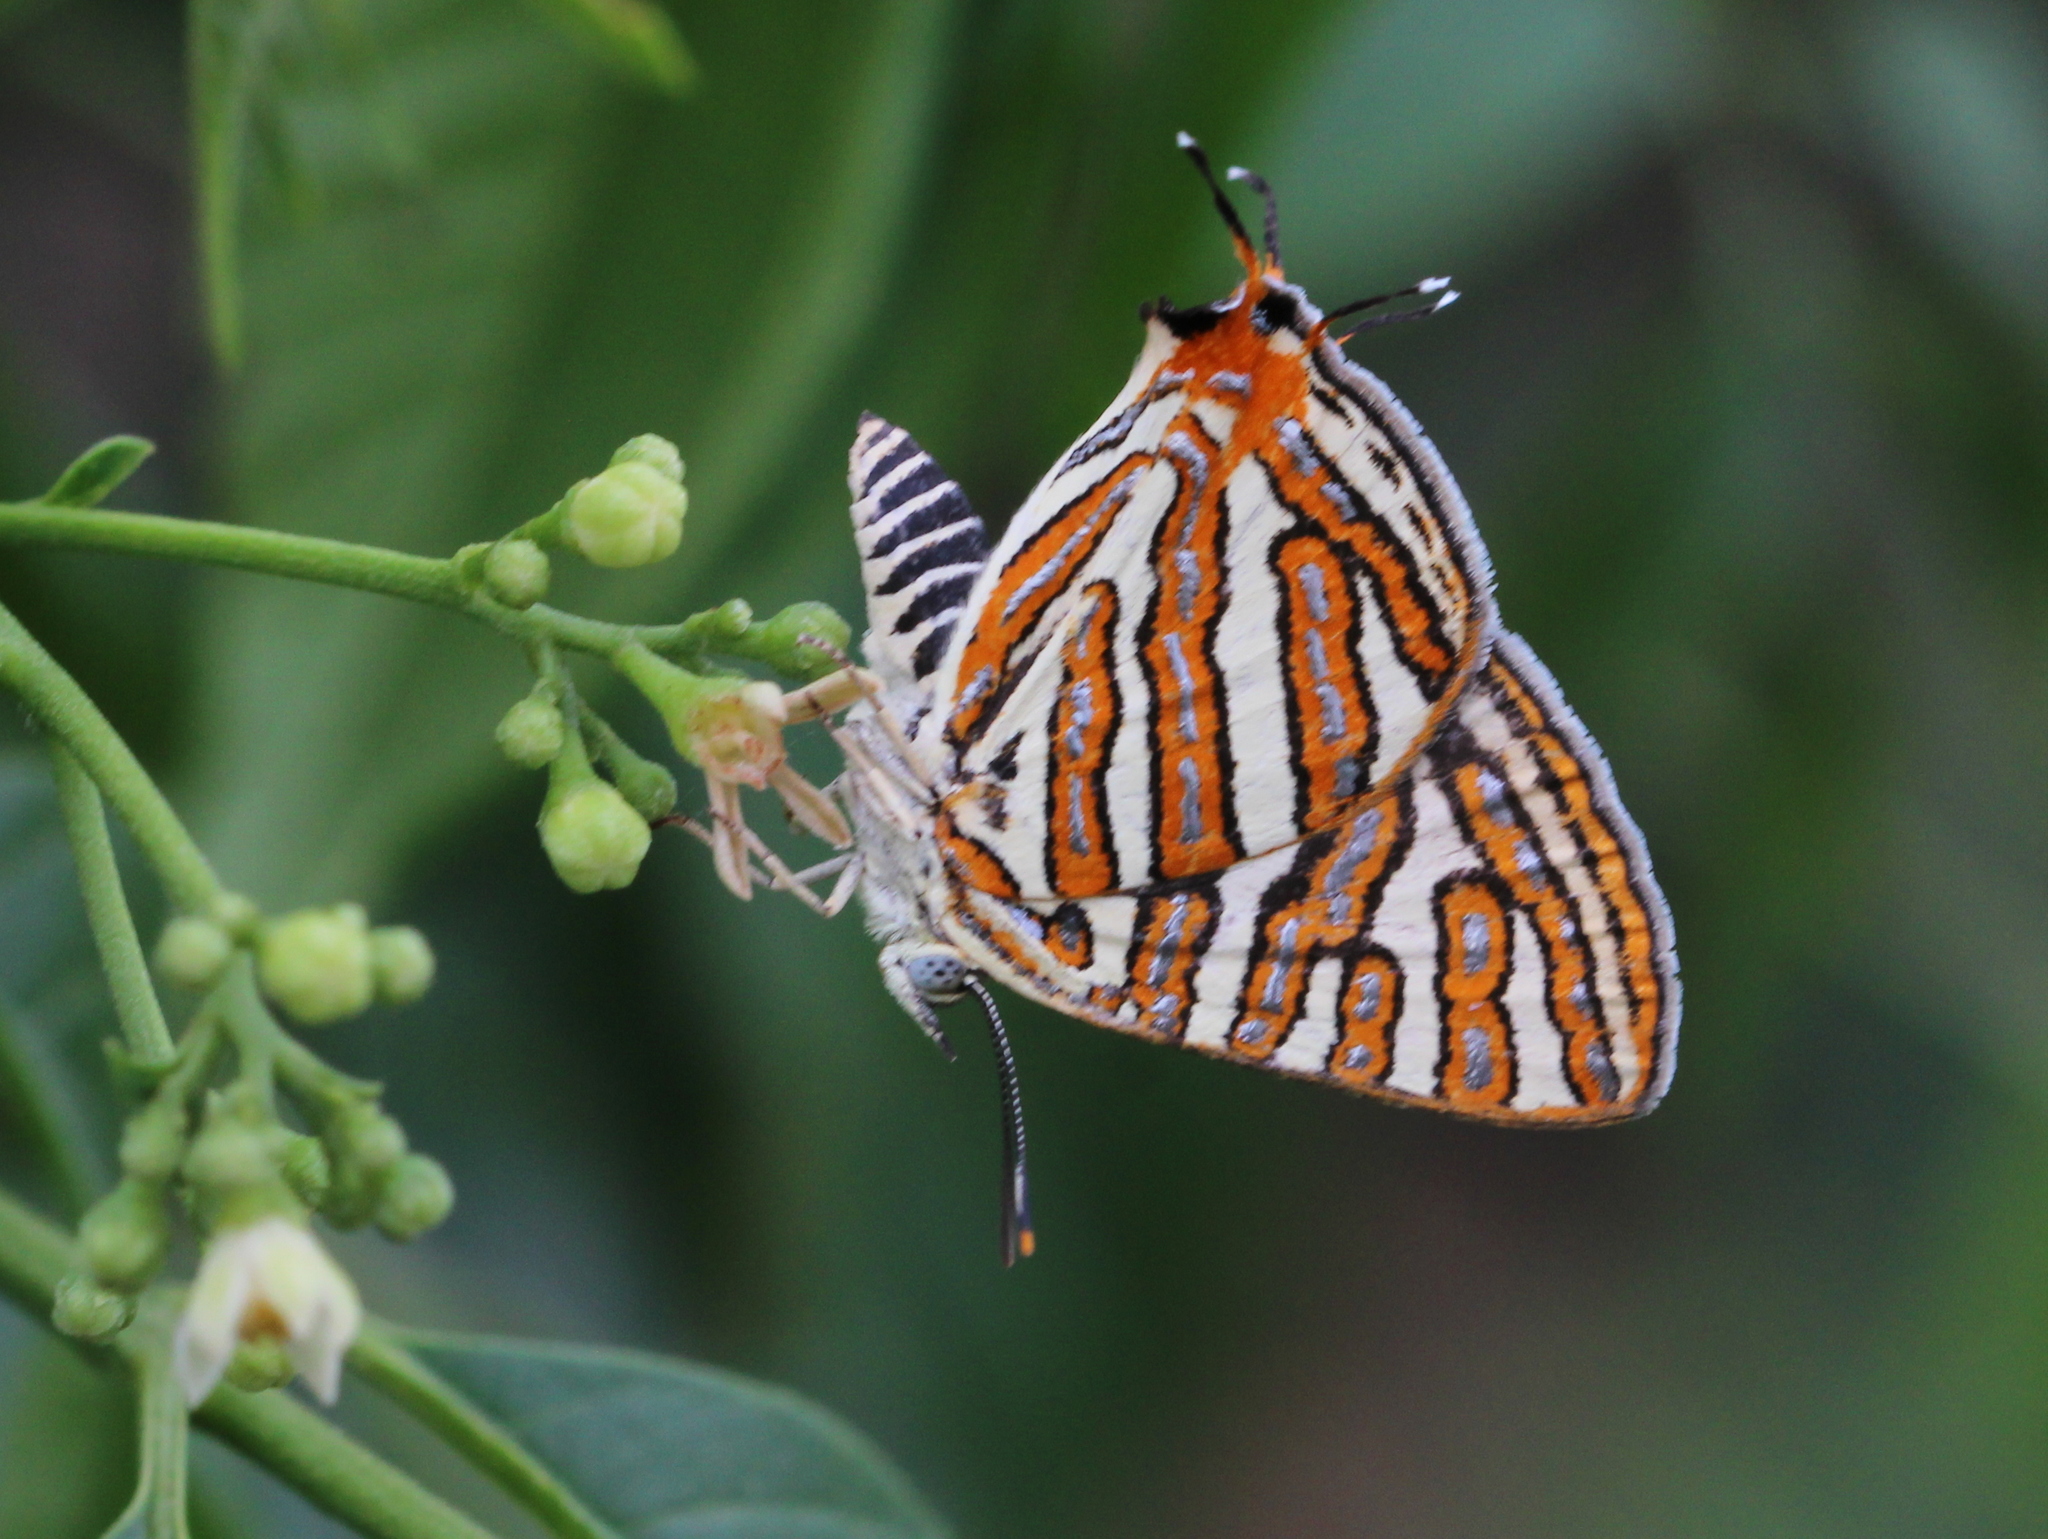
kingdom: Animalia
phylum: Arthropoda
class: Insecta
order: Lepidoptera
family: Lycaenidae
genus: Cigaritis
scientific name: Cigaritis vulcanus
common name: Common silverline
